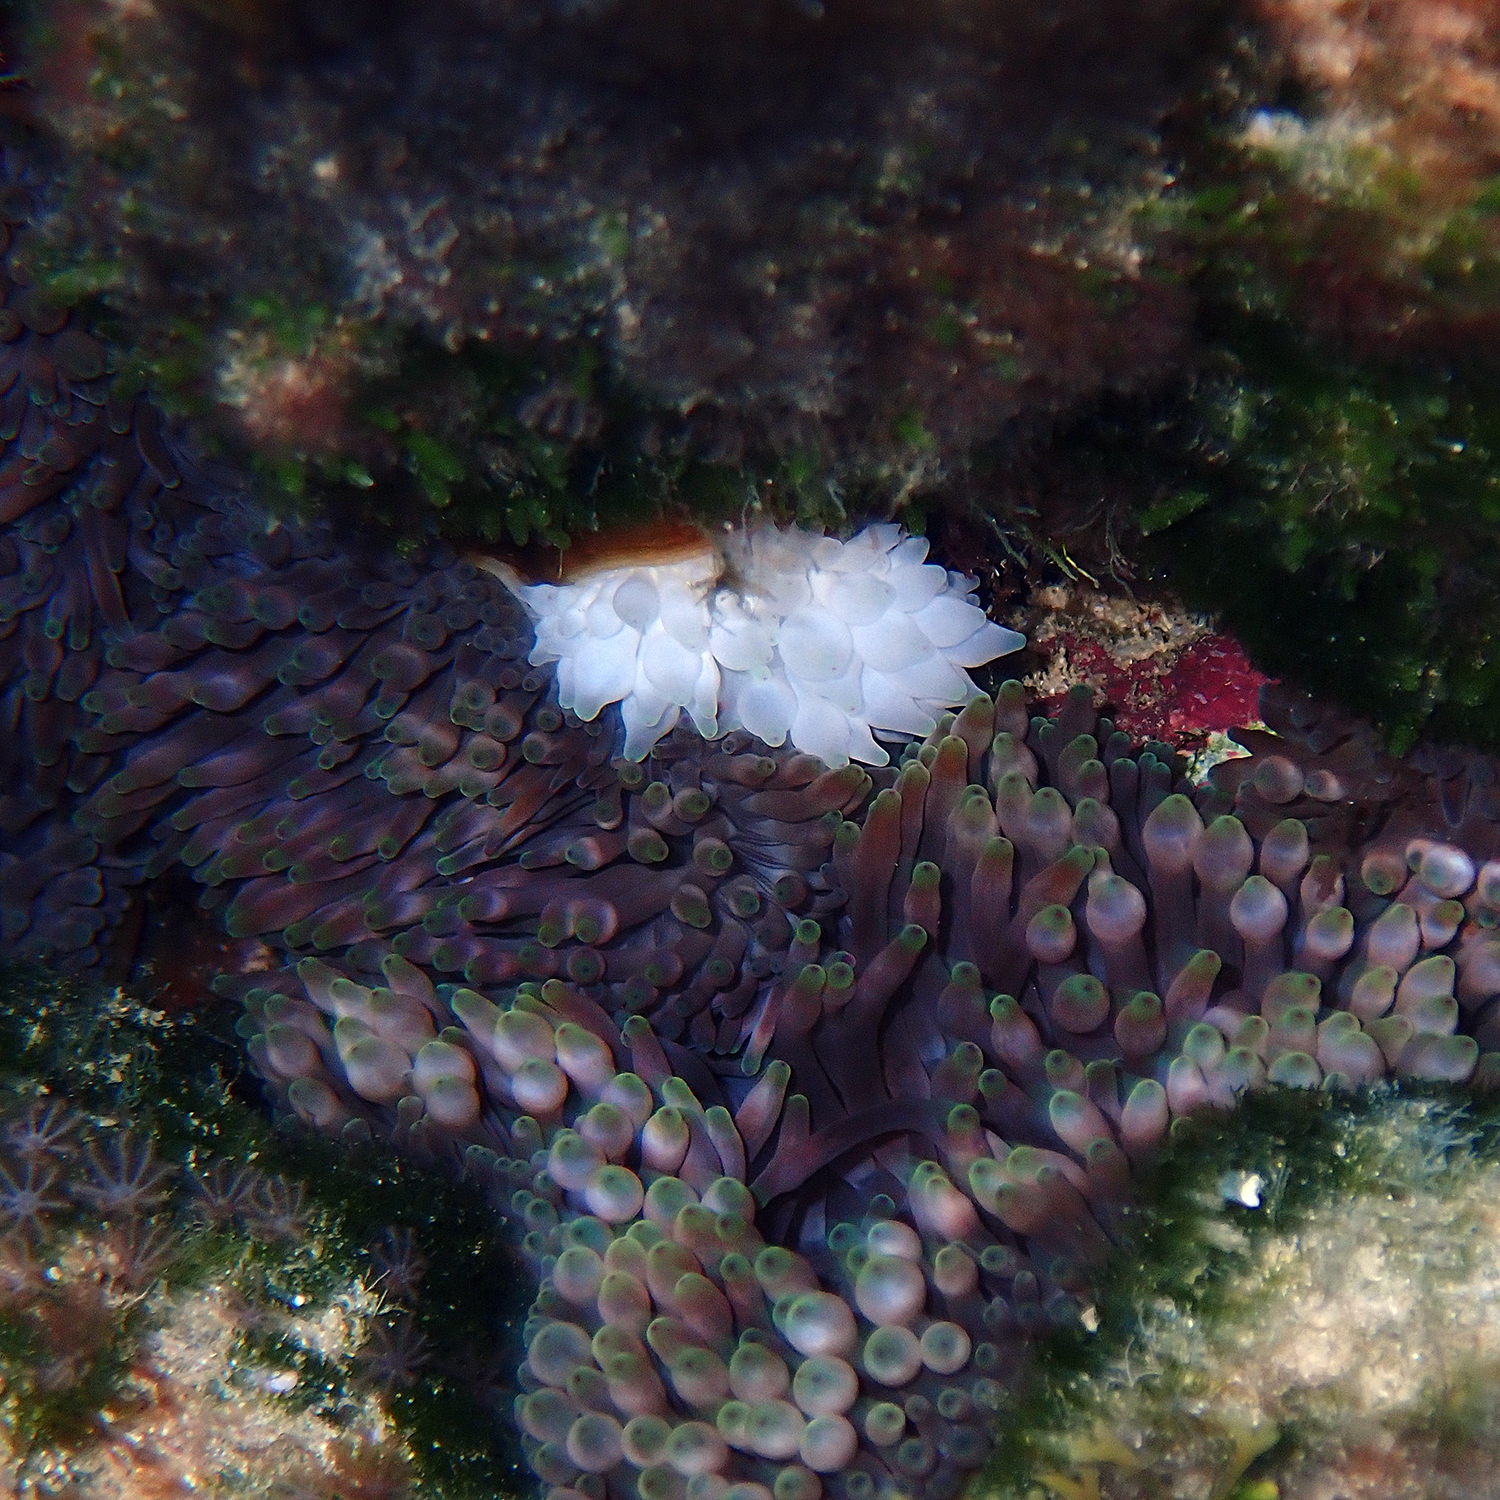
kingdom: Animalia
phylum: Cnidaria
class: Anthozoa
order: Actiniaria
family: Actiniidae
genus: Entacmaea
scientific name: Entacmaea quadricolor
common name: Bulb tentacle sea anemone
